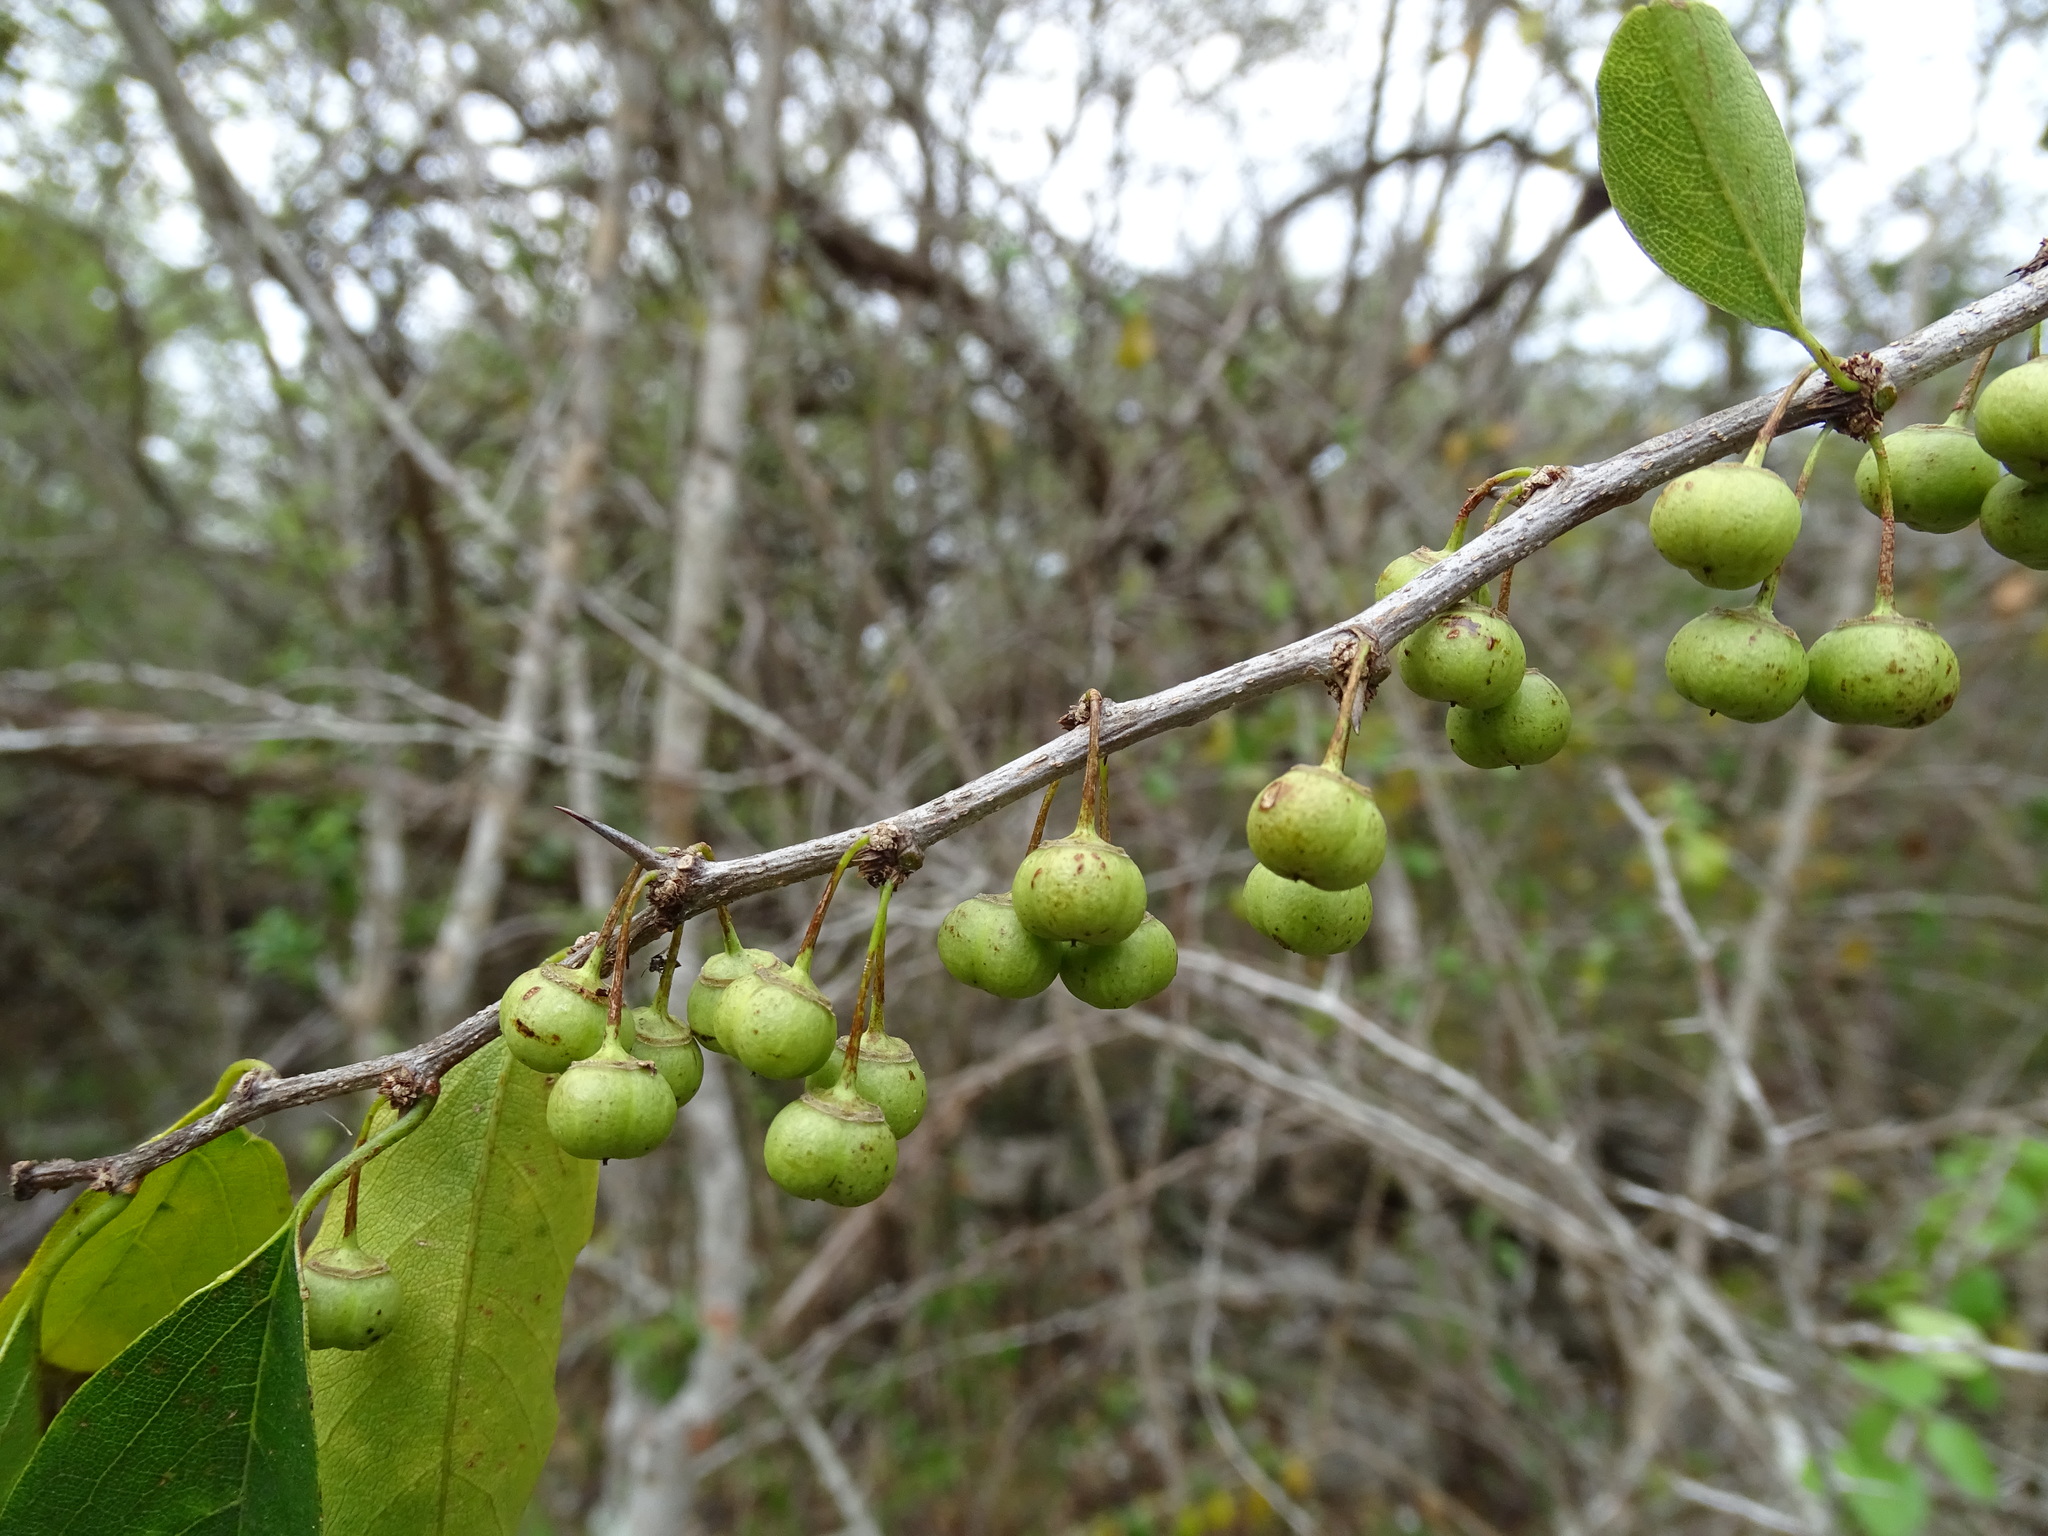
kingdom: Plantae
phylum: Tracheophyta
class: Magnoliopsida
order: Rosales
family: Rhamnaceae
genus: Colubrina
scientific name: Colubrina heteroneura
